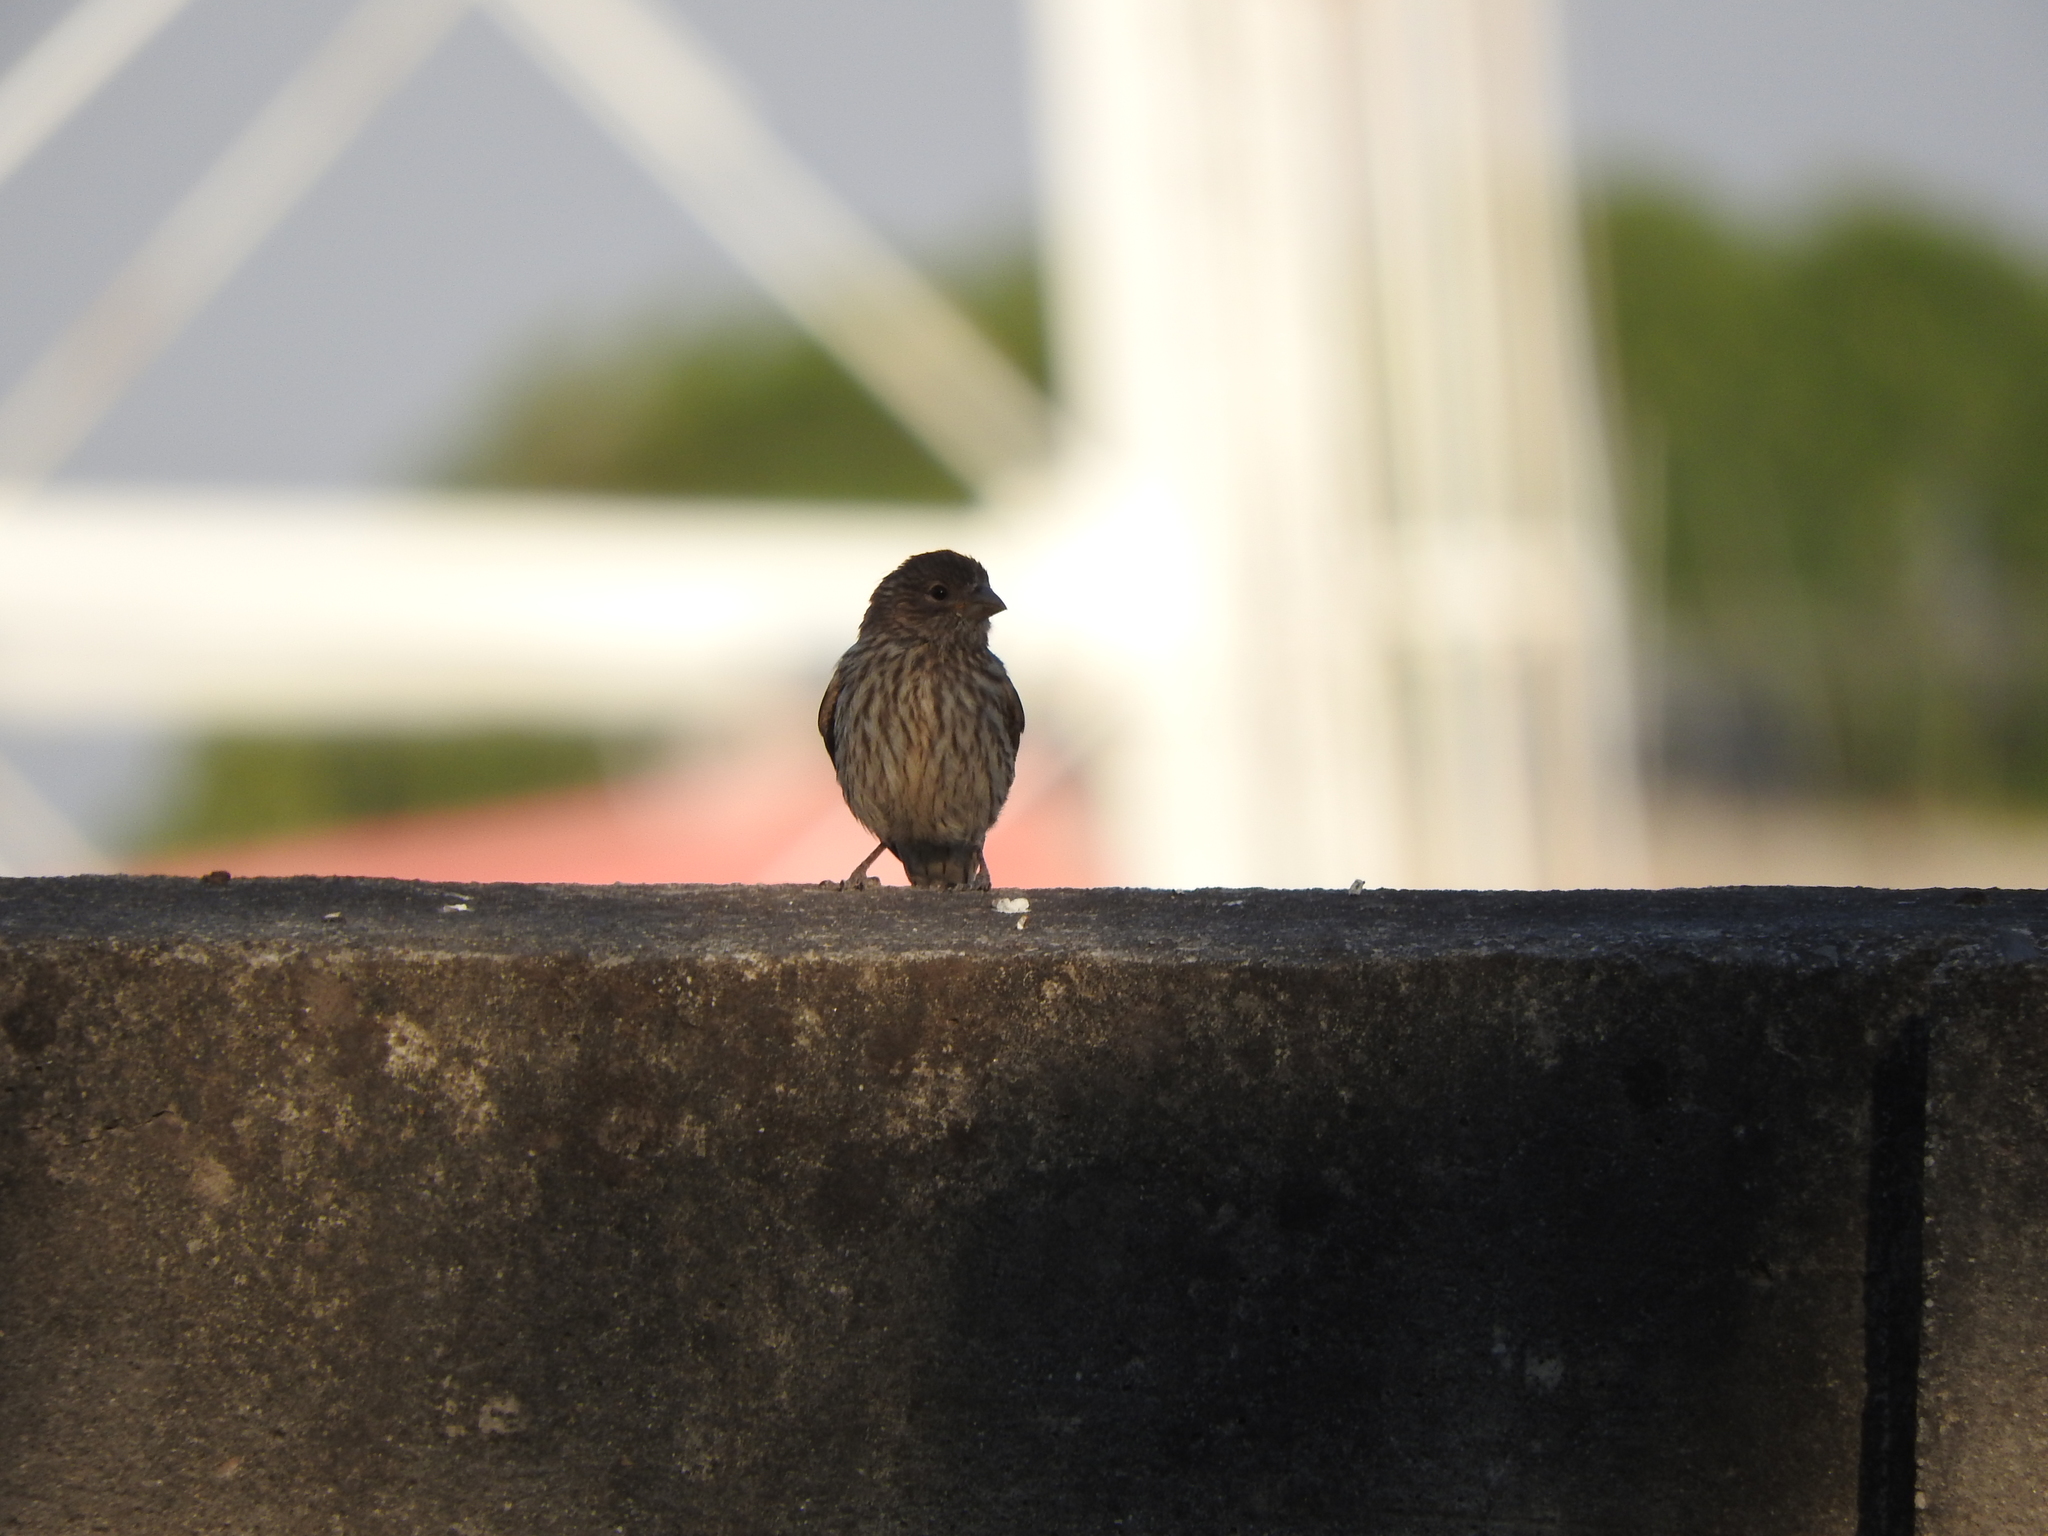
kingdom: Animalia
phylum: Chordata
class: Aves
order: Passeriformes
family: Fringillidae
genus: Haemorhous
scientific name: Haemorhous mexicanus
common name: House finch
